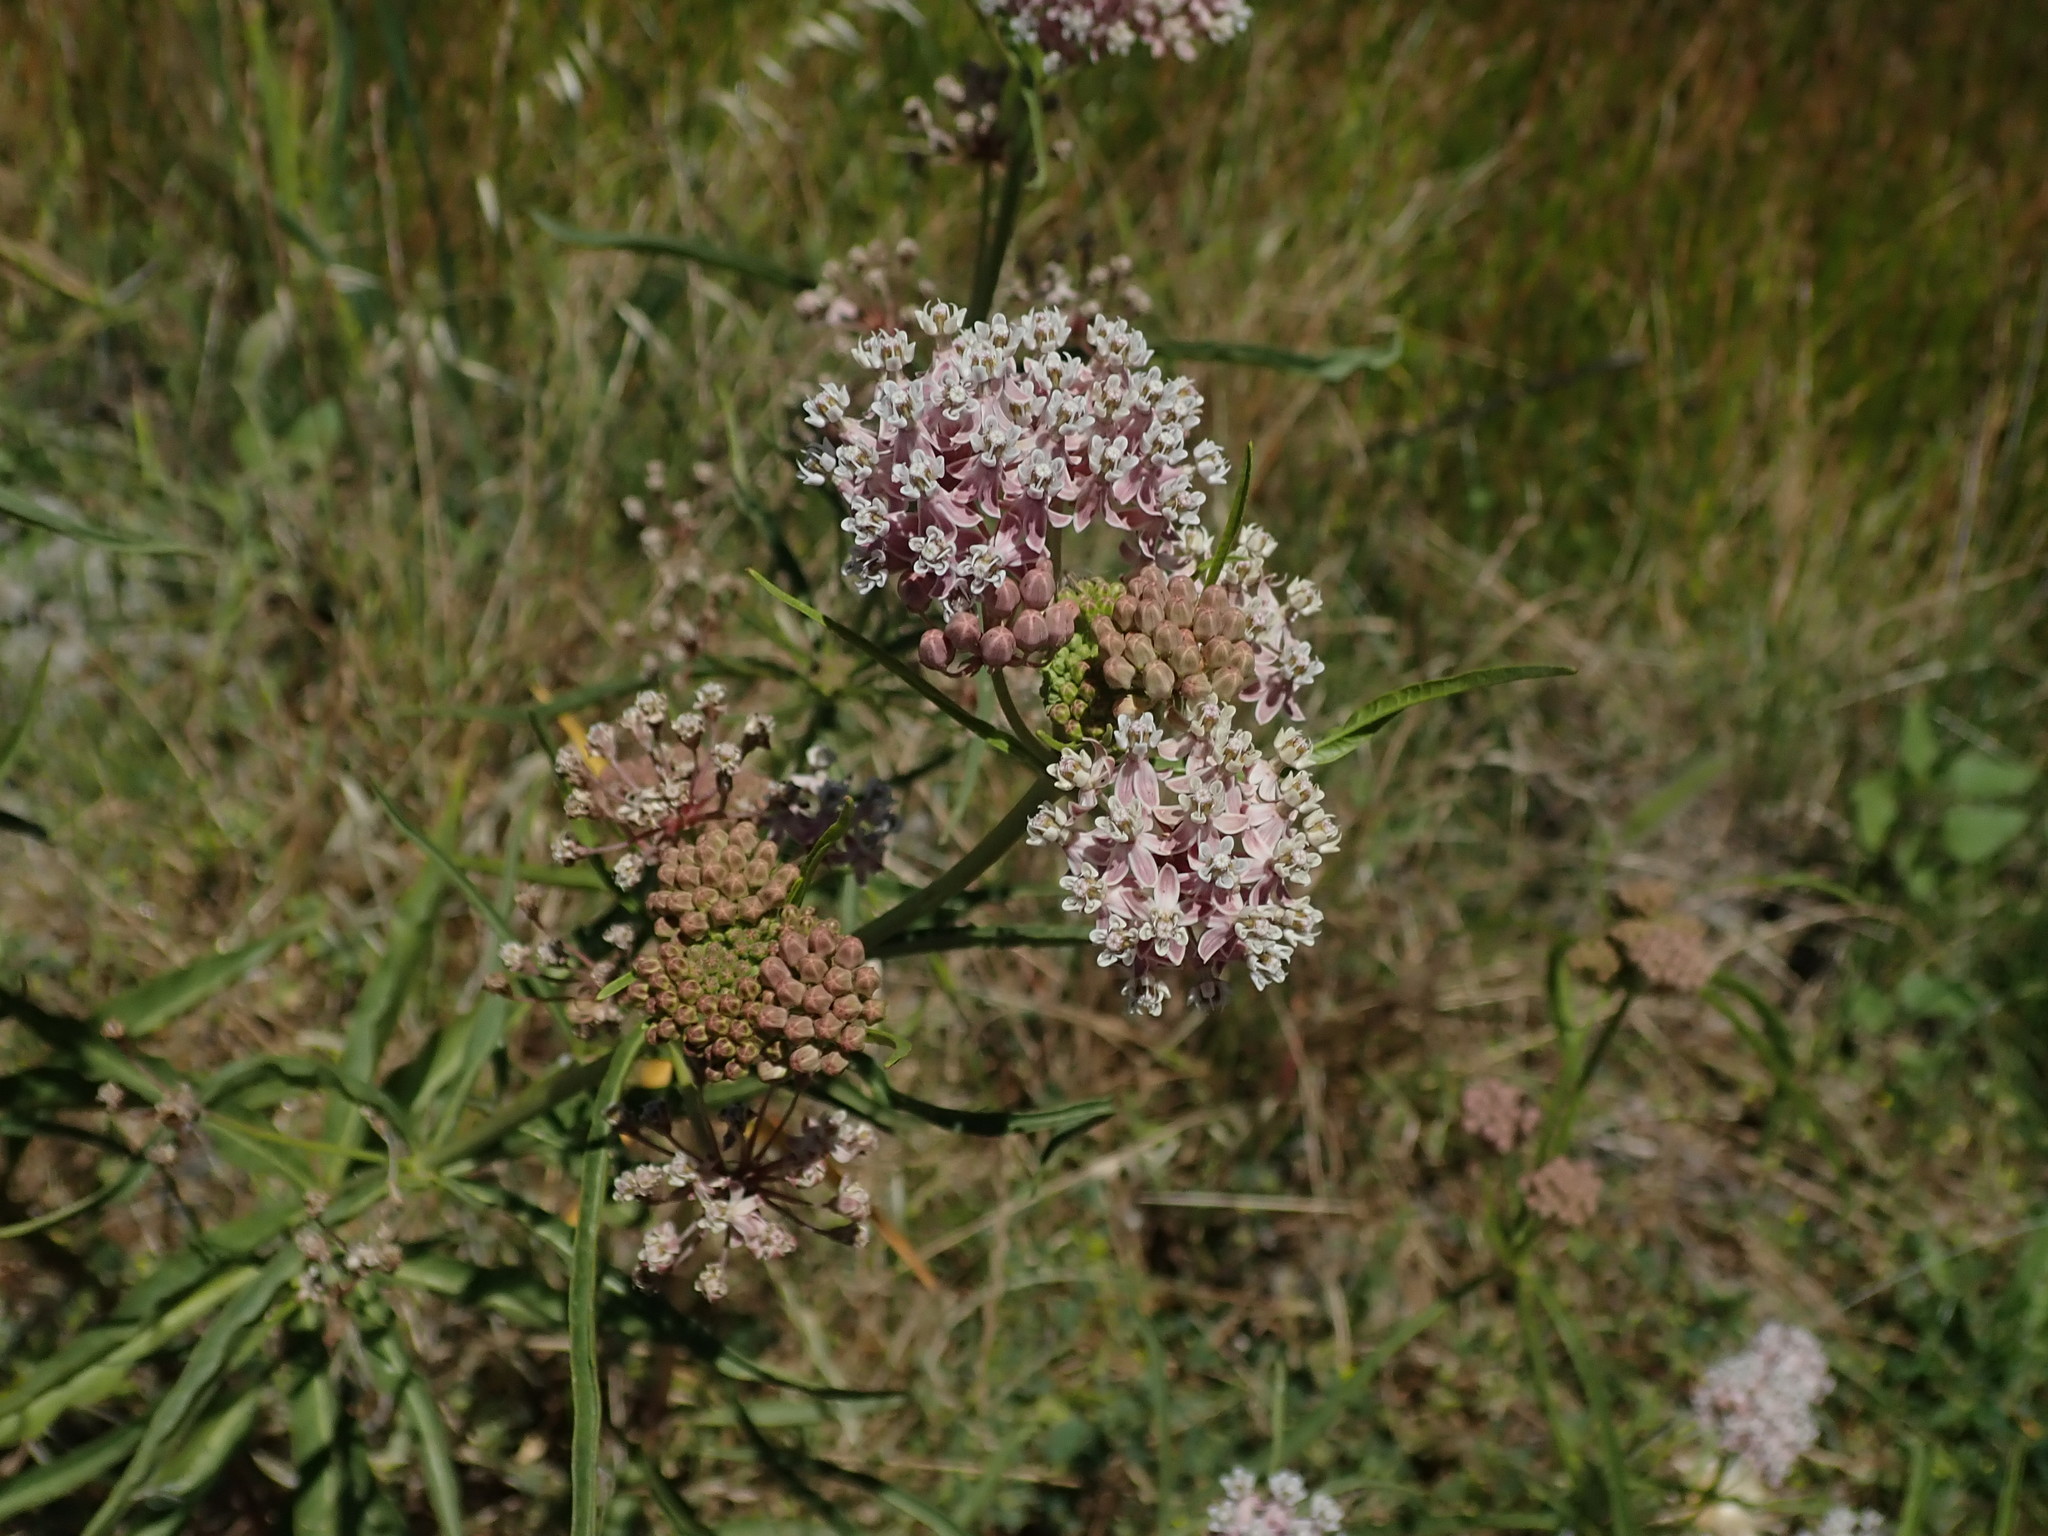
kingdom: Plantae
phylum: Tracheophyta
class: Magnoliopsida
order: Gentianales
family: Apocynaceae
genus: Asclepias
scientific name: Asclepias fascicularis
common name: Mexican milkweed
